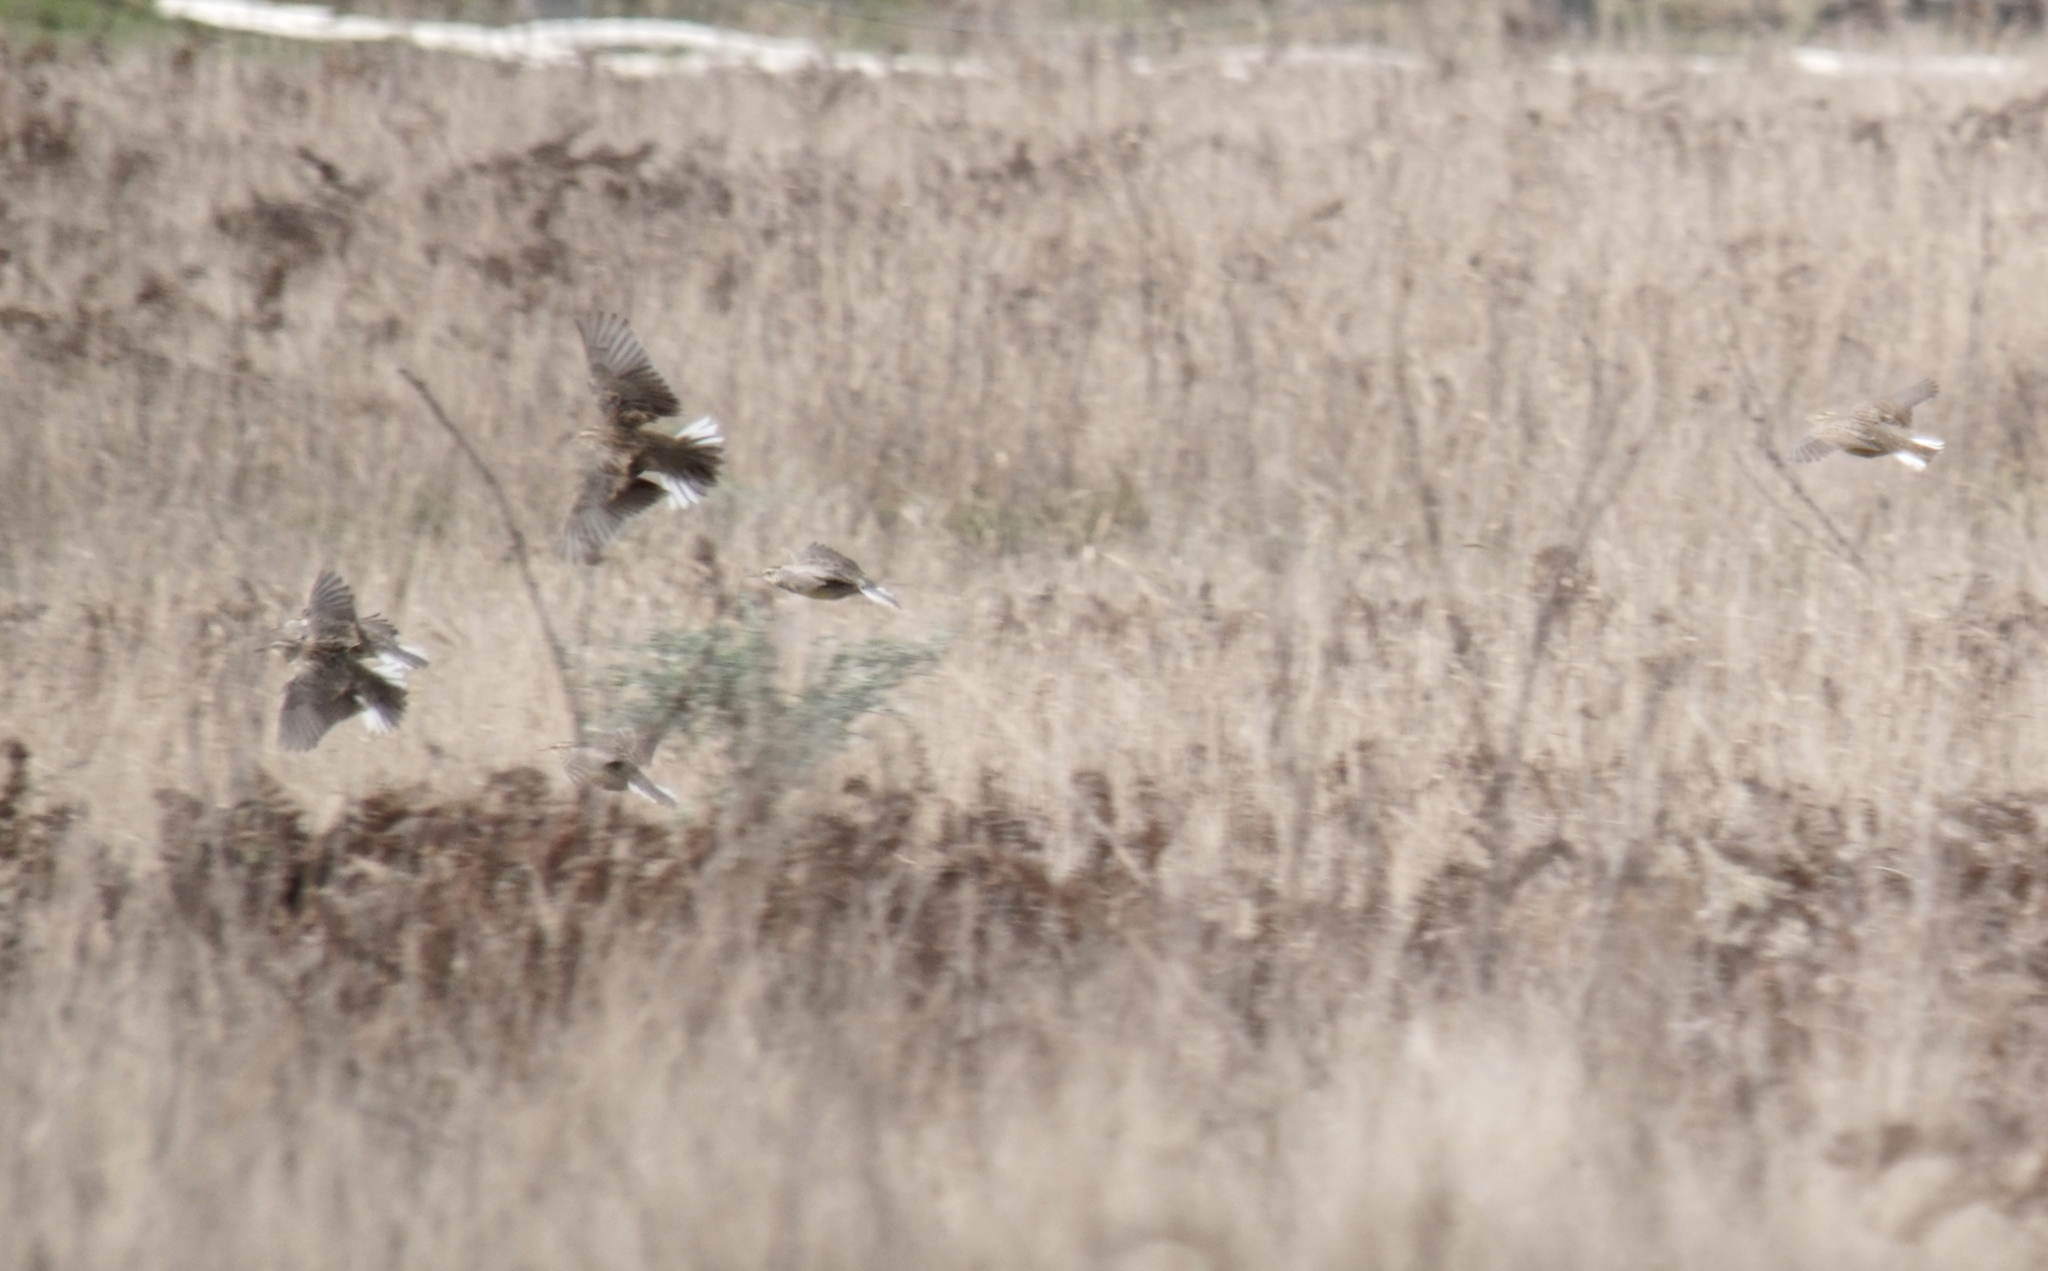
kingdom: Animalia
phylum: Chordata
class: Aves
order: Passeriformes
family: Icteridae
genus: Sturnella
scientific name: Sturnella neglecta
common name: Western meadowlark
